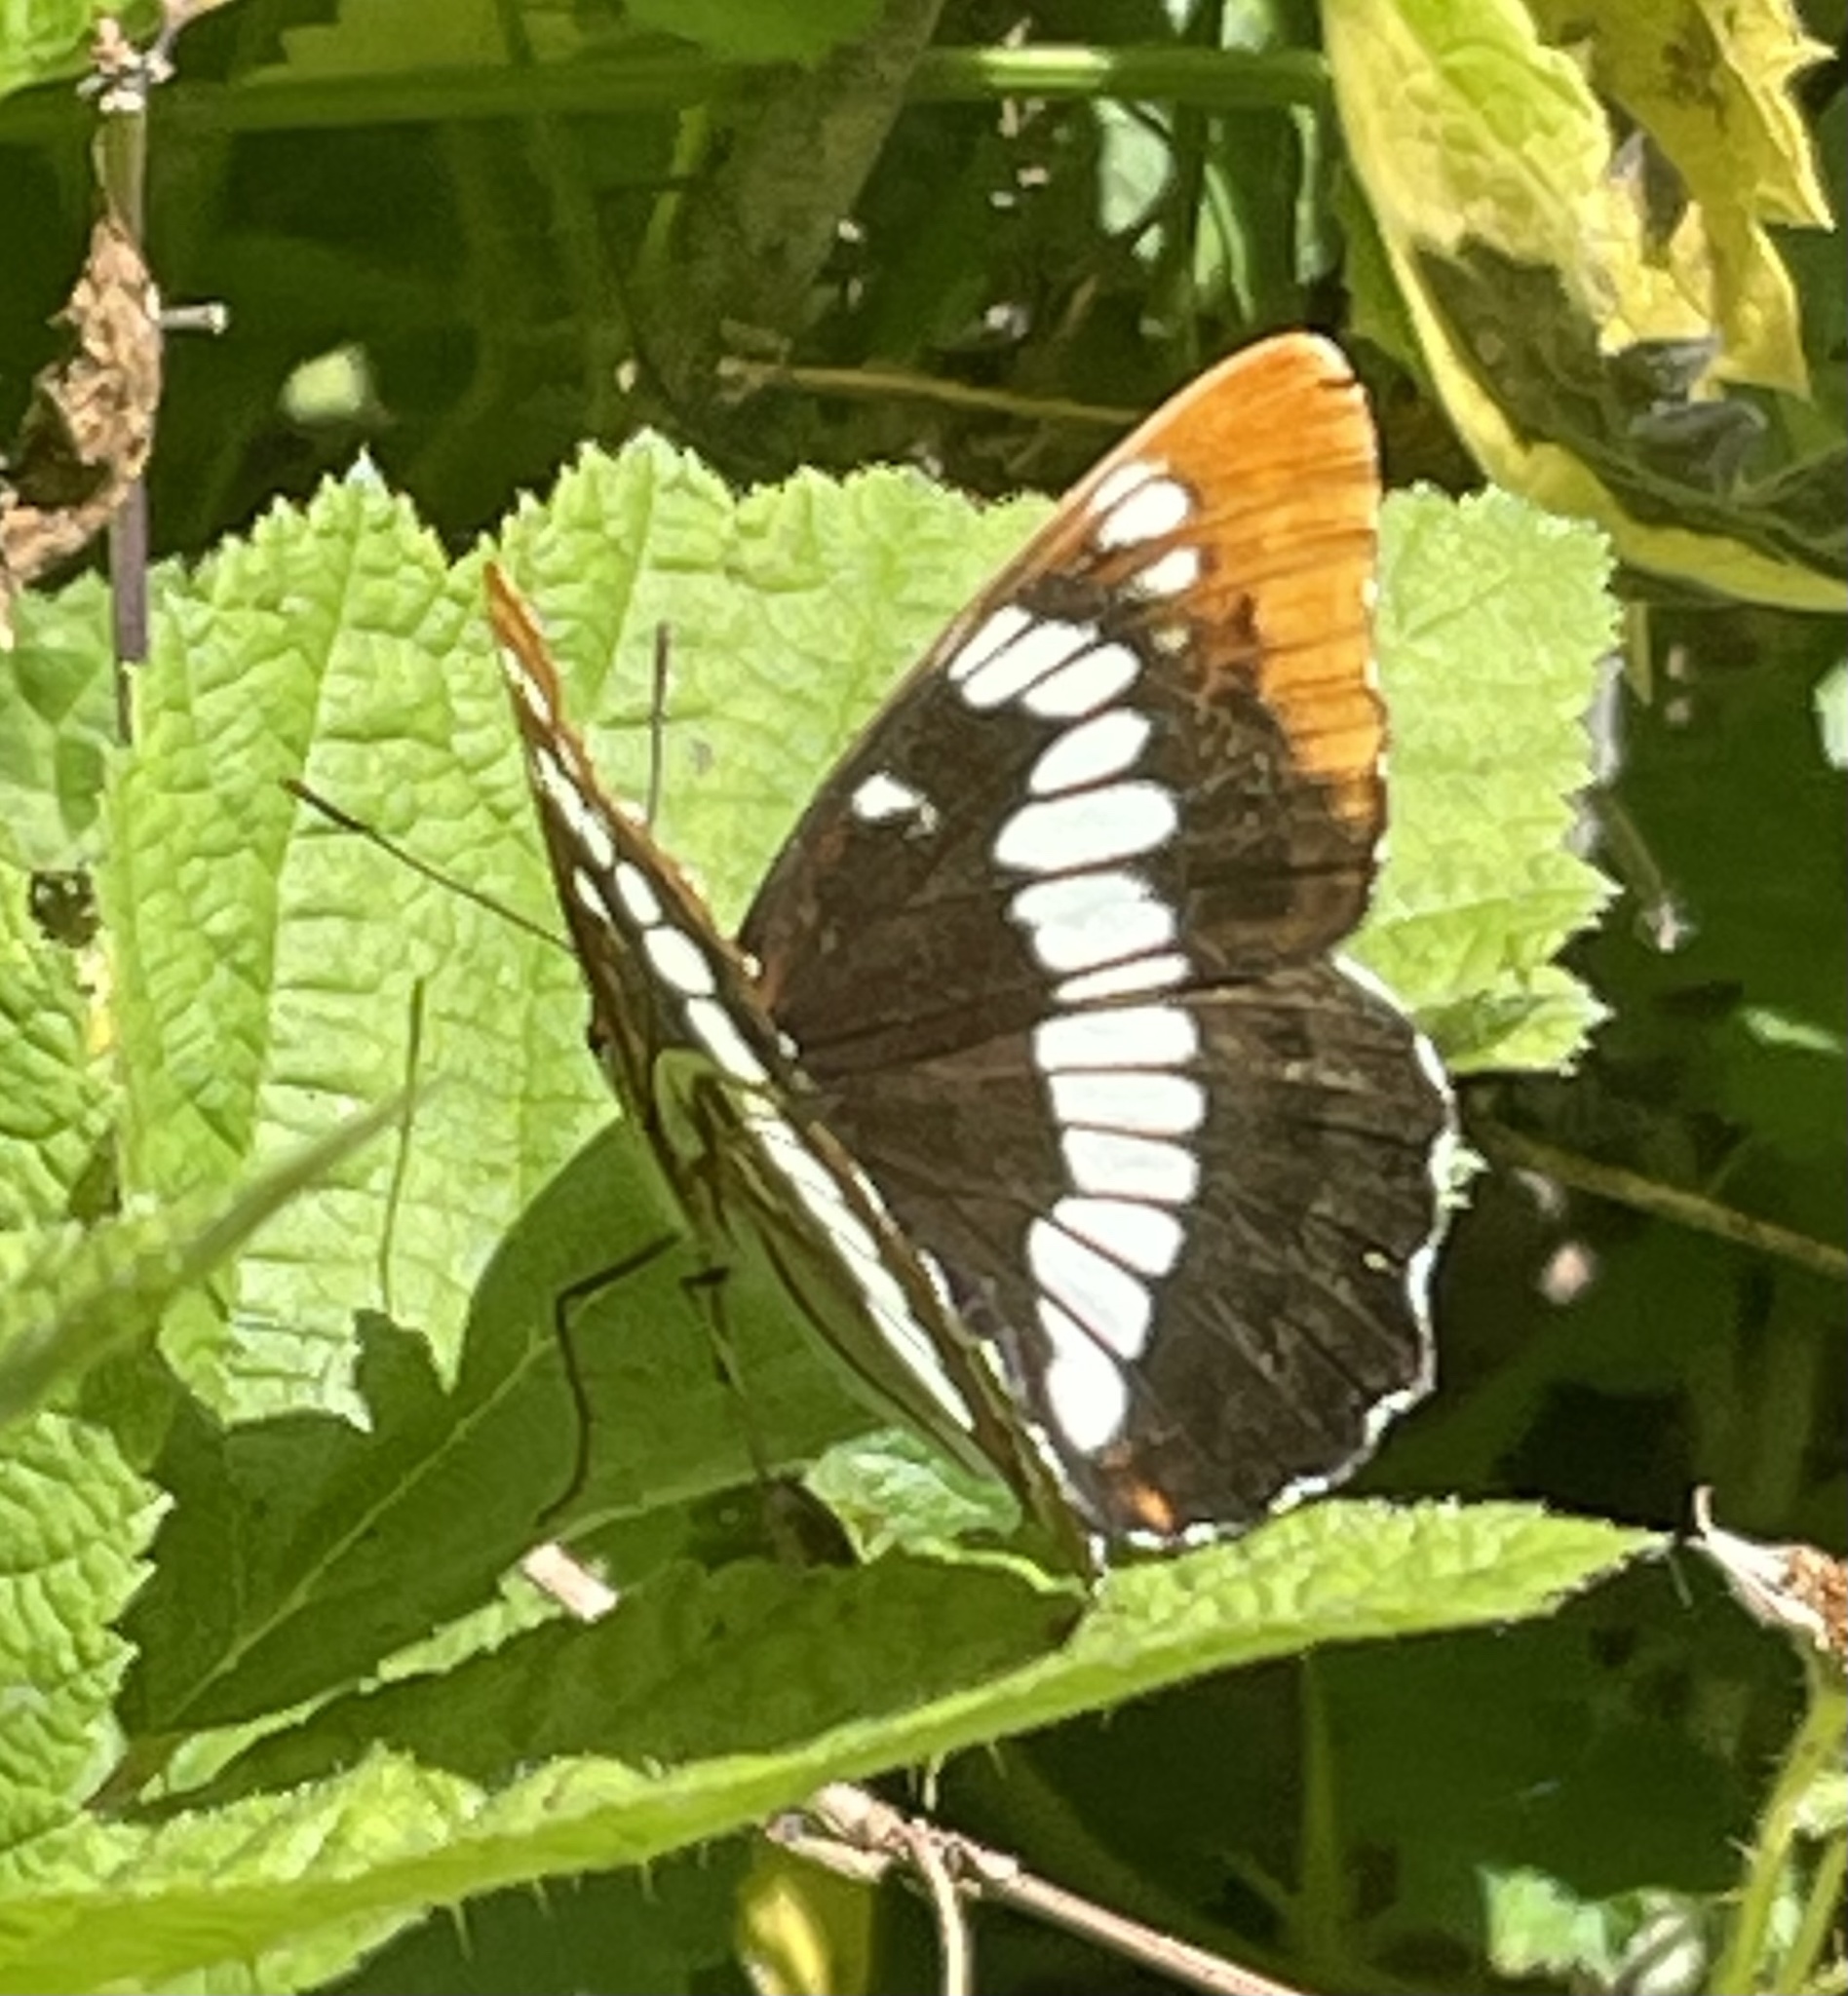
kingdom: Animalia
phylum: Arthropoda
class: Insecta
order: Lepidoptera
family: Nymphalidae
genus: Limenitis
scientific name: Limenitis lorquini
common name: Lorquin's admiral
